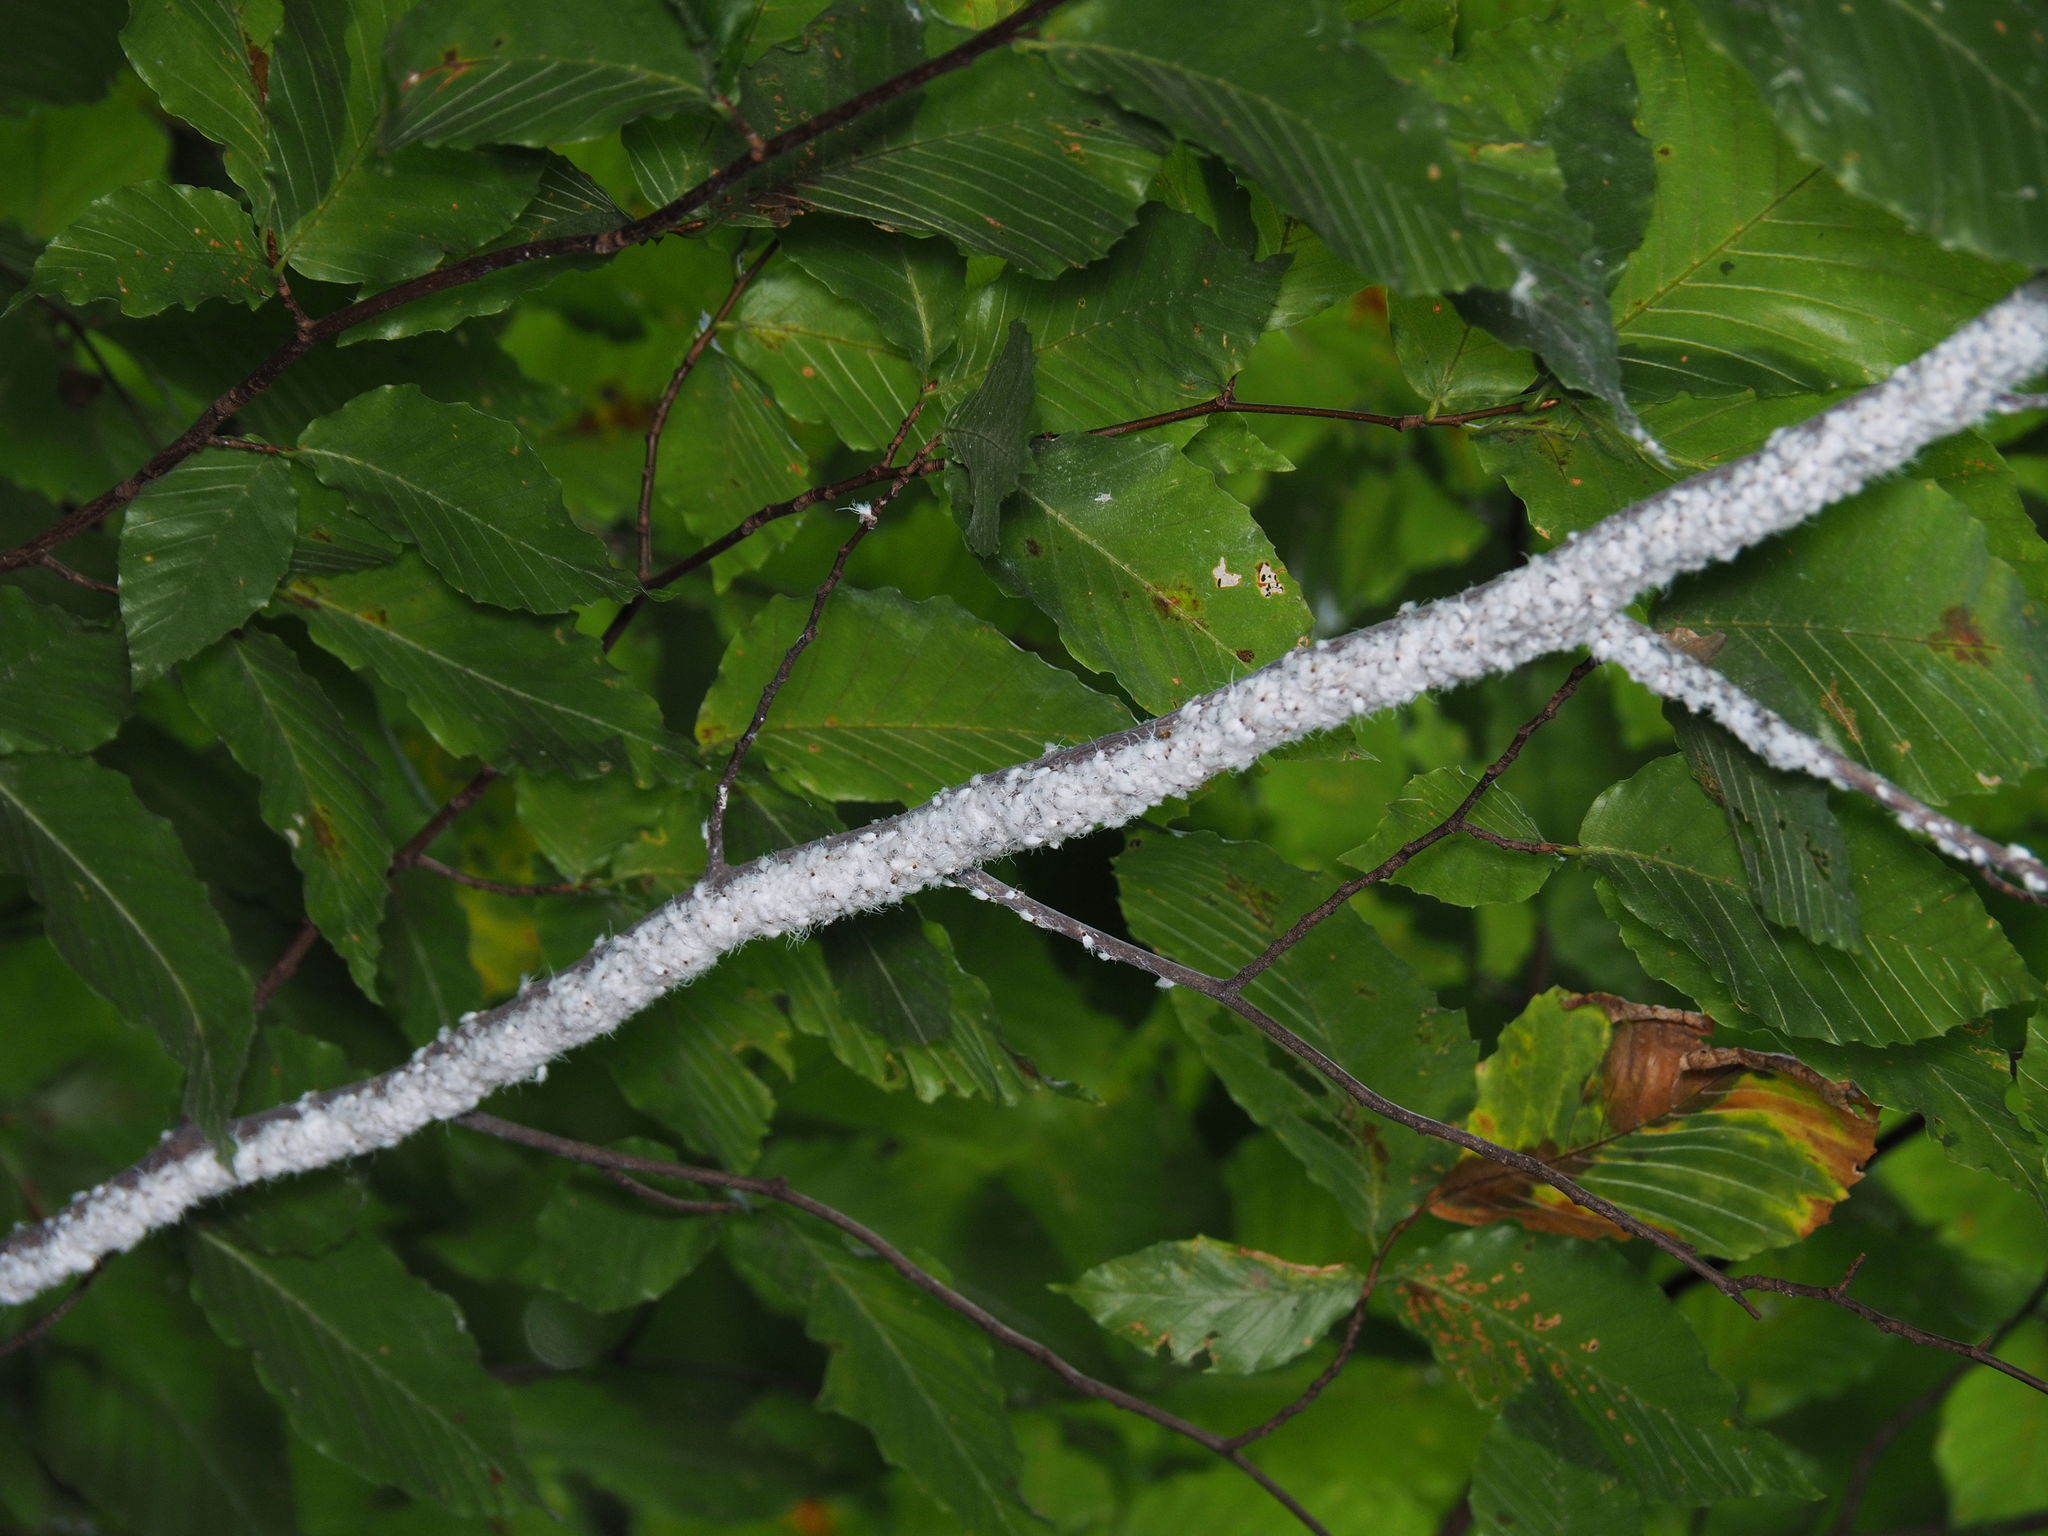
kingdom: Animalia
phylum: Arthropoda
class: Insecta
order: Hemiptera
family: Aphididae
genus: Grylloprociphilus
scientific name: Grylloprociphilus imbricator
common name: Beech blight aphid
